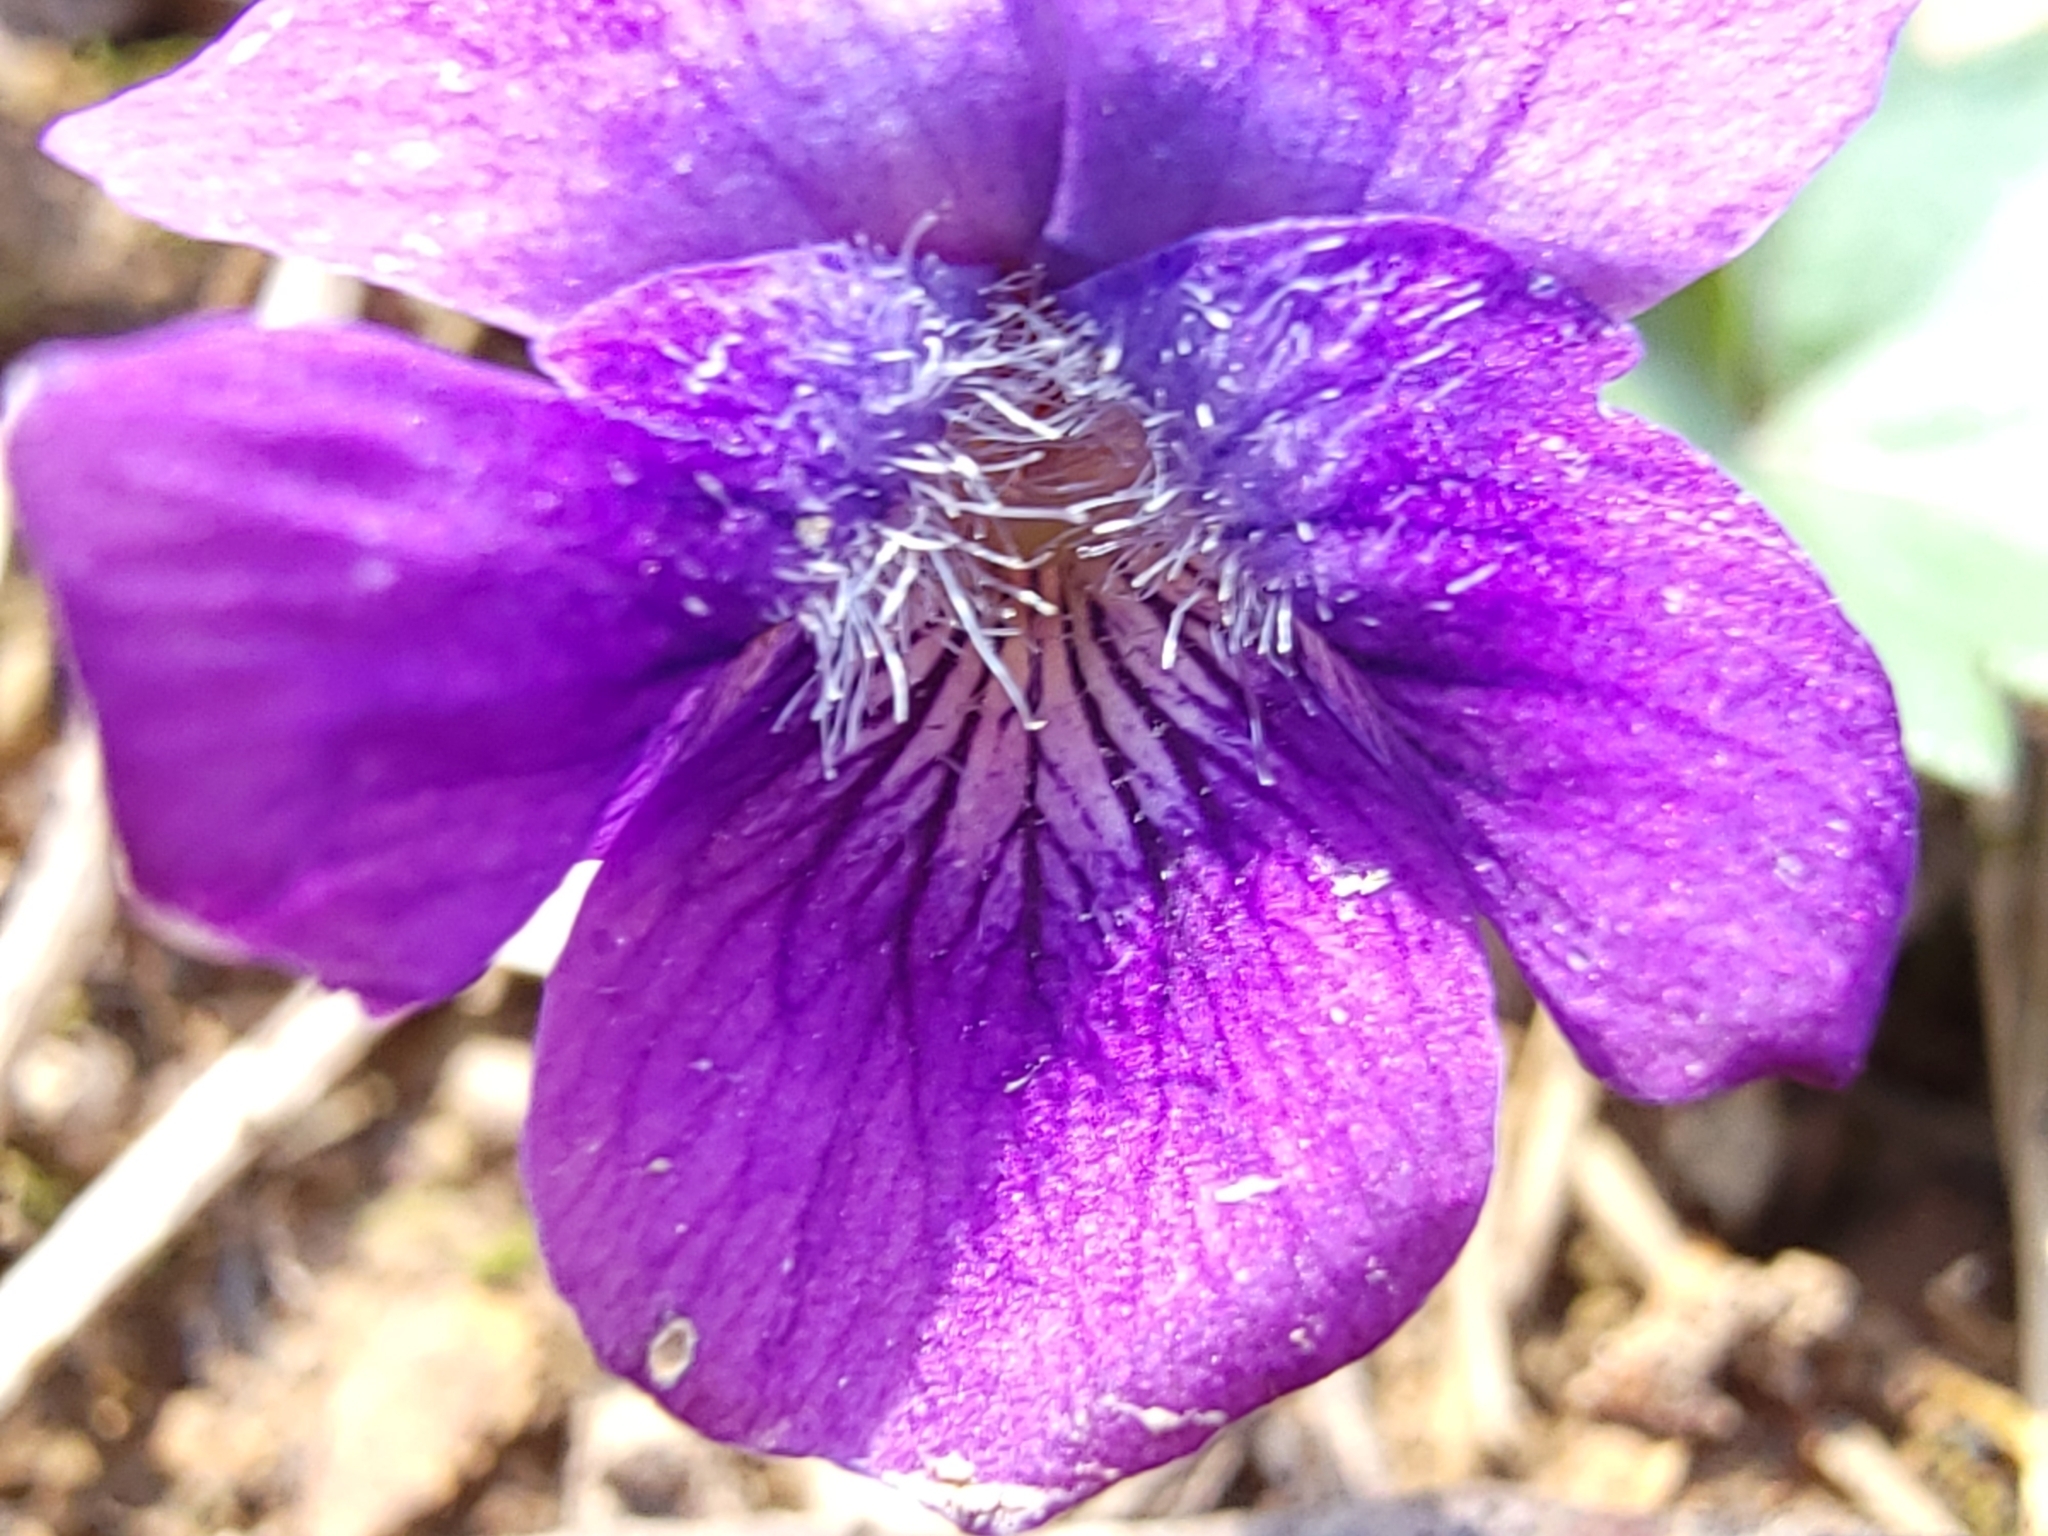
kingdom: Plantae
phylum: Tracheophyta
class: Magnoliopsida
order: Malpighiales
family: Violaceae
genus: Viola
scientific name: Viola palmata
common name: Early blue violet
